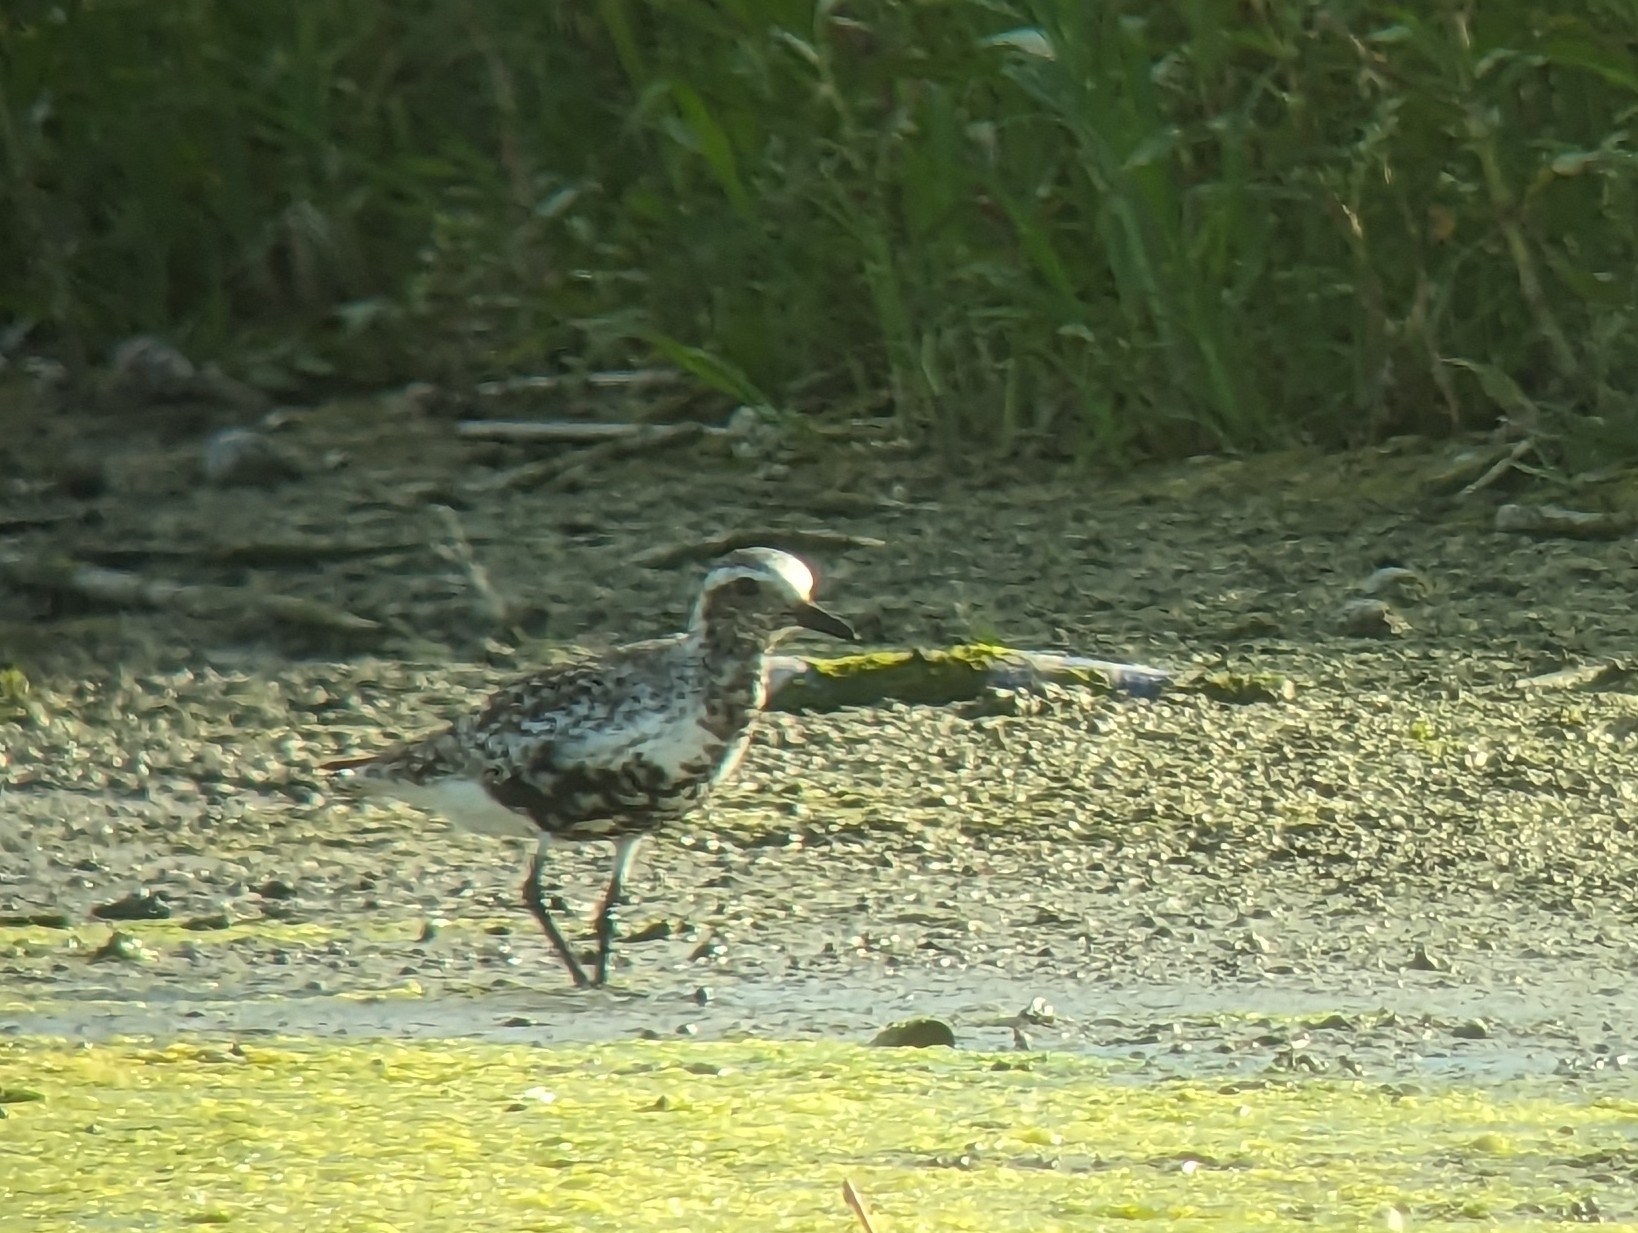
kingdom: Animalia
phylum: Chordata
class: Aves
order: Charadriiformes
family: Charadriidae
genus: Pluvialis
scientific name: Pluvialis squatarola
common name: Grey plover
